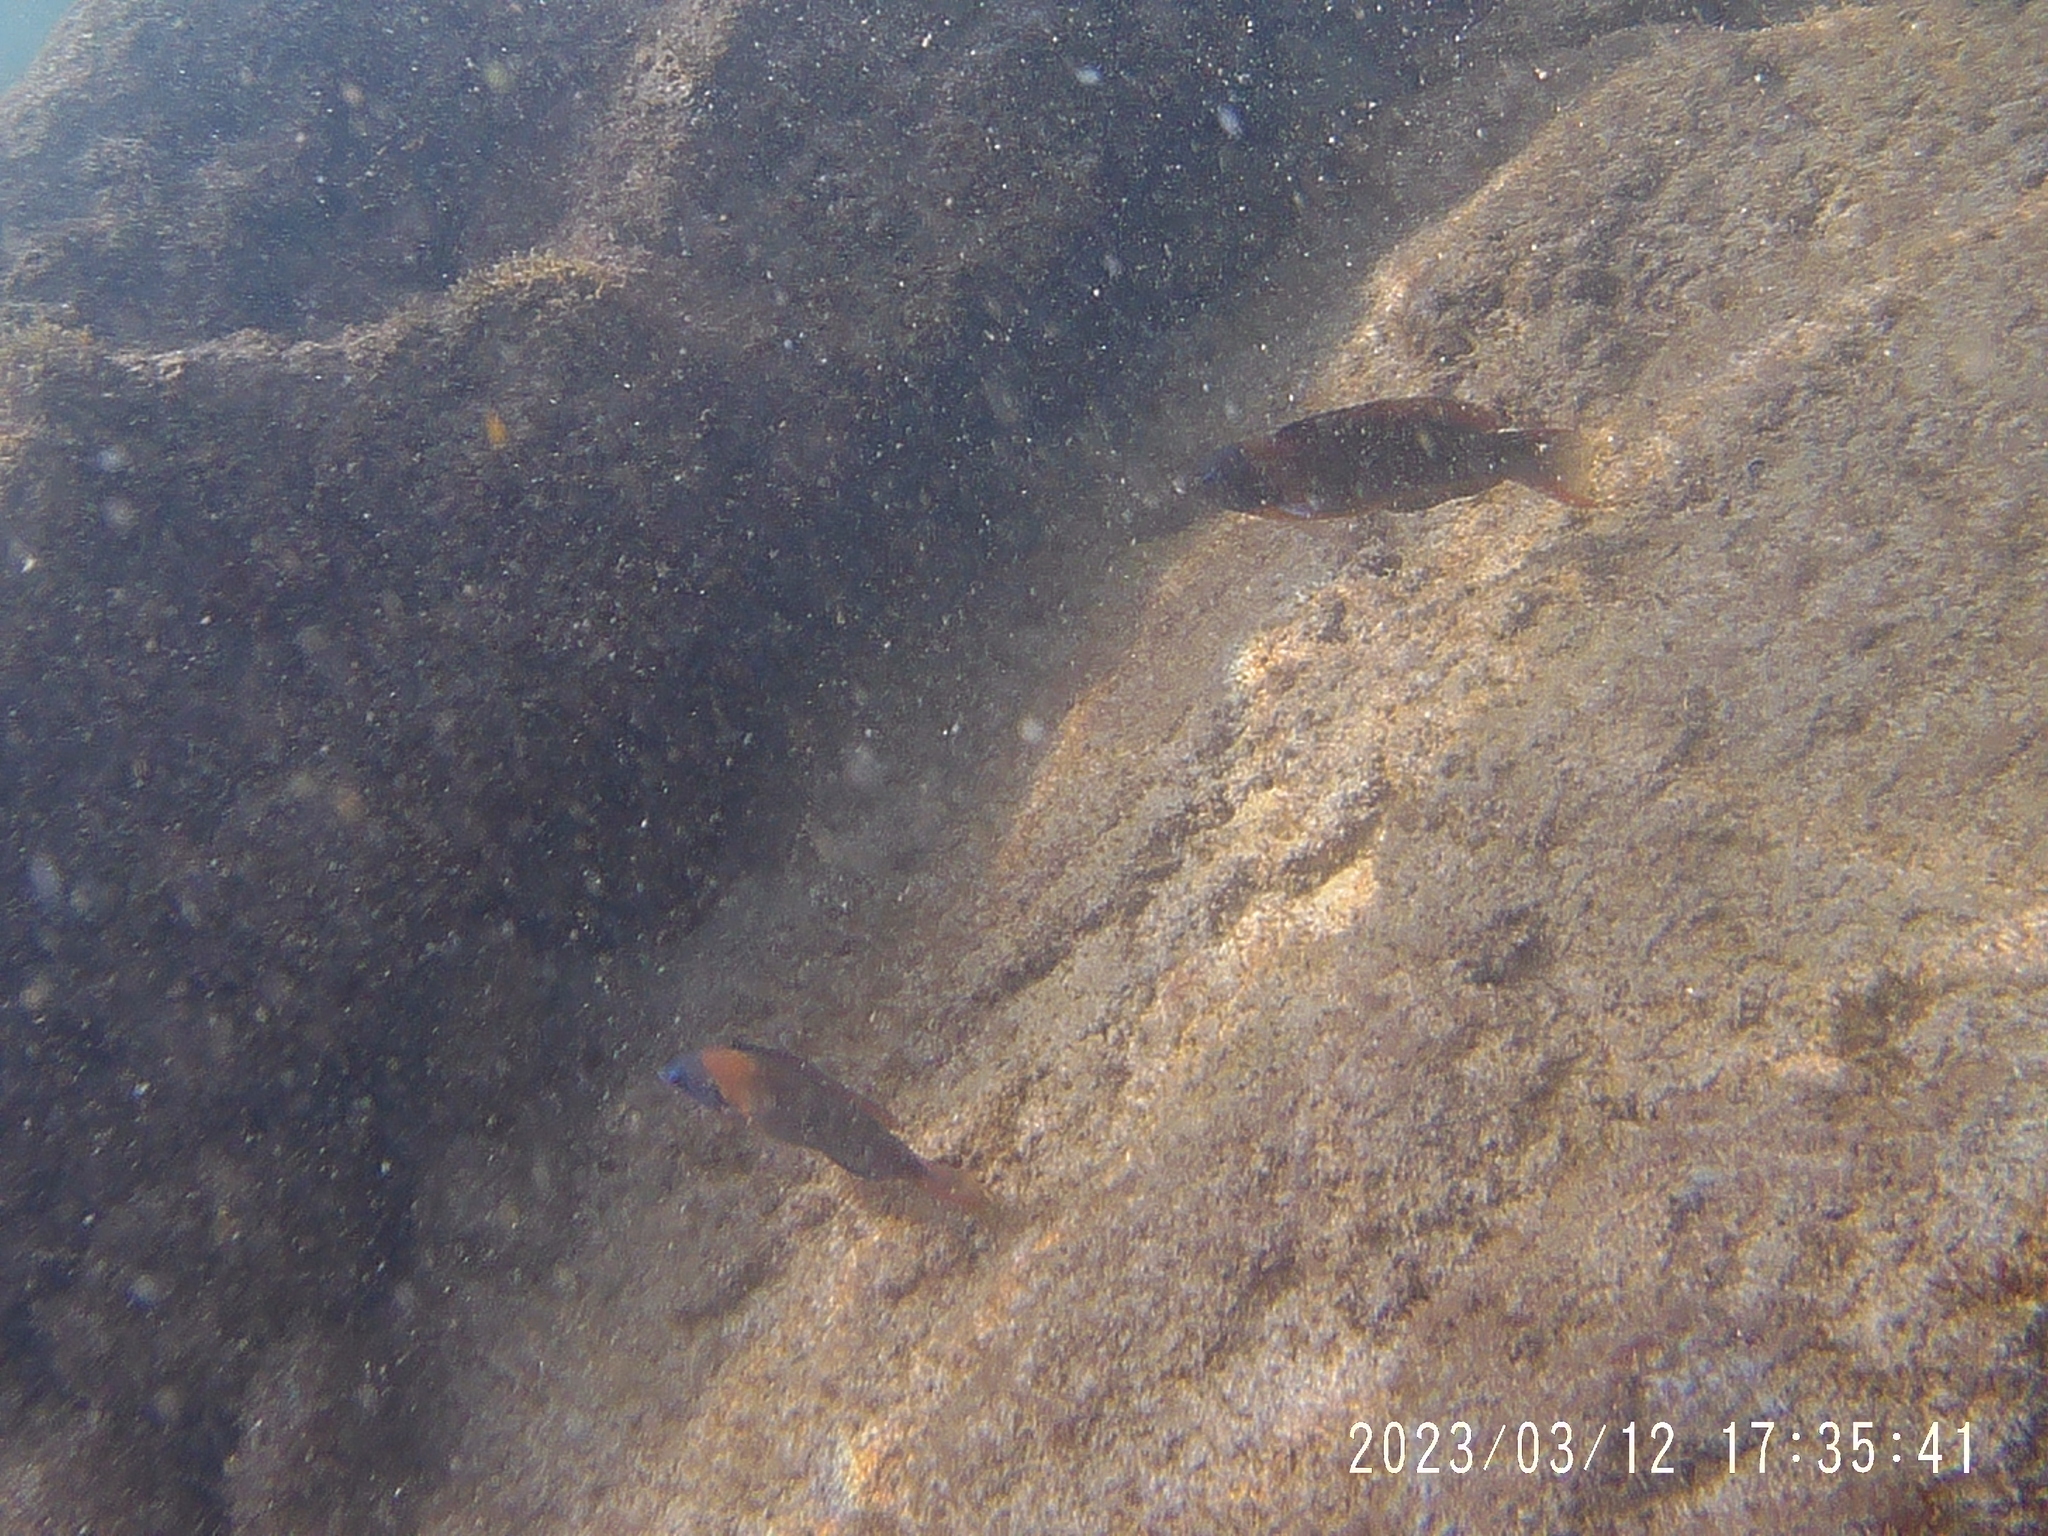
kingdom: Animalia
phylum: Chordata
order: Perciformes
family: Labridae
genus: Thalassoma
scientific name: Thalassoma duperrey
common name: Saddle wrasse
